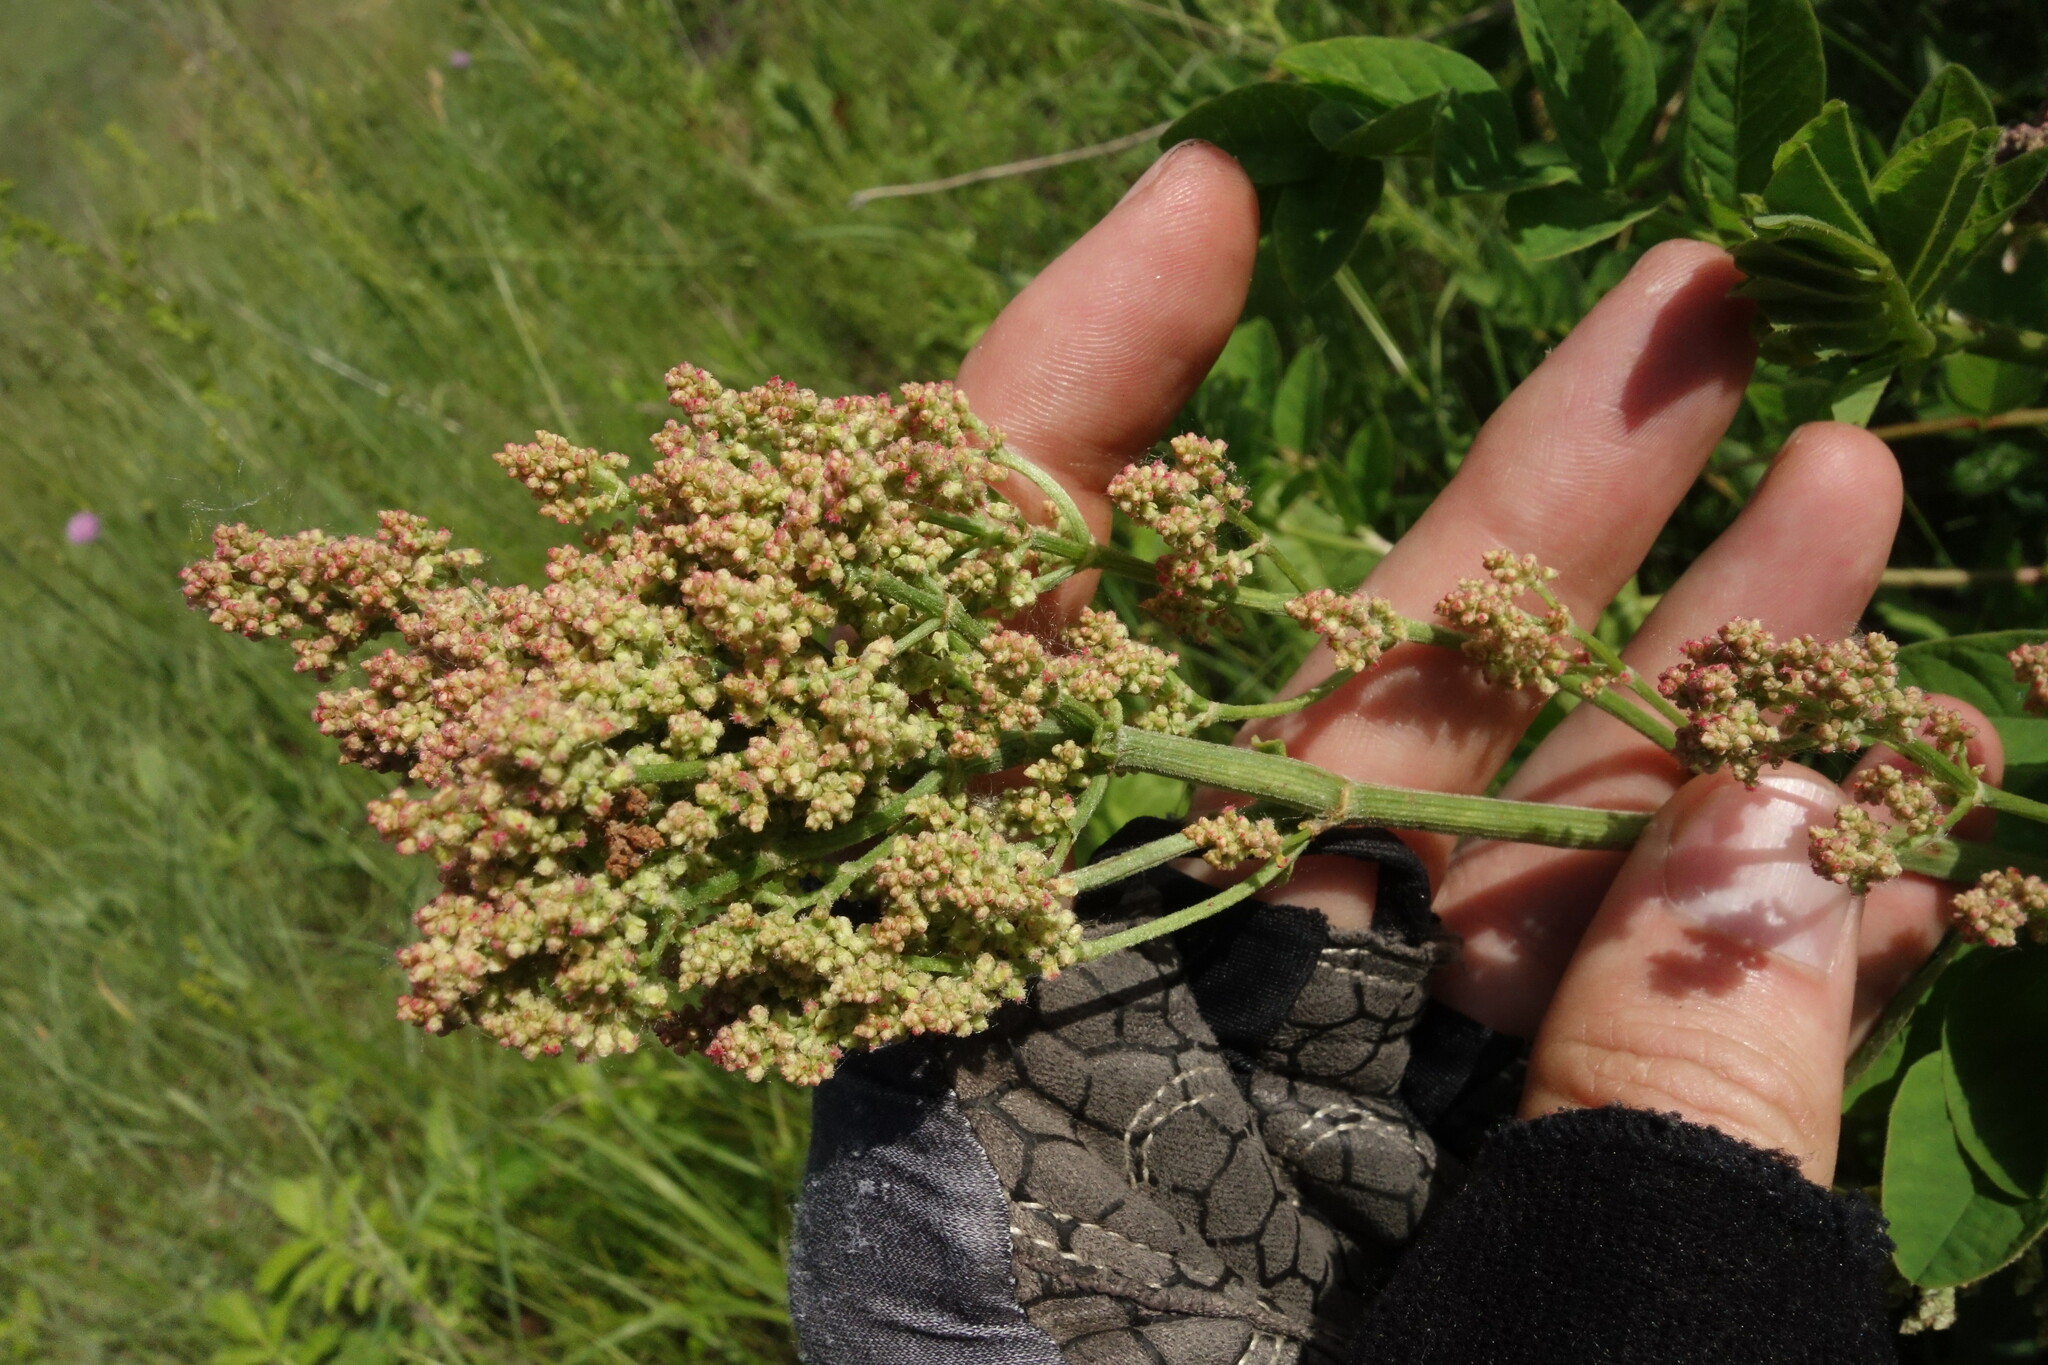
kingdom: Plantae
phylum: Tracheophyta
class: Magnoliopsida
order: Caryophyllales
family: Polygonaceae
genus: Rumex
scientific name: Rumex thyrsiflorus
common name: Garden sorrel
